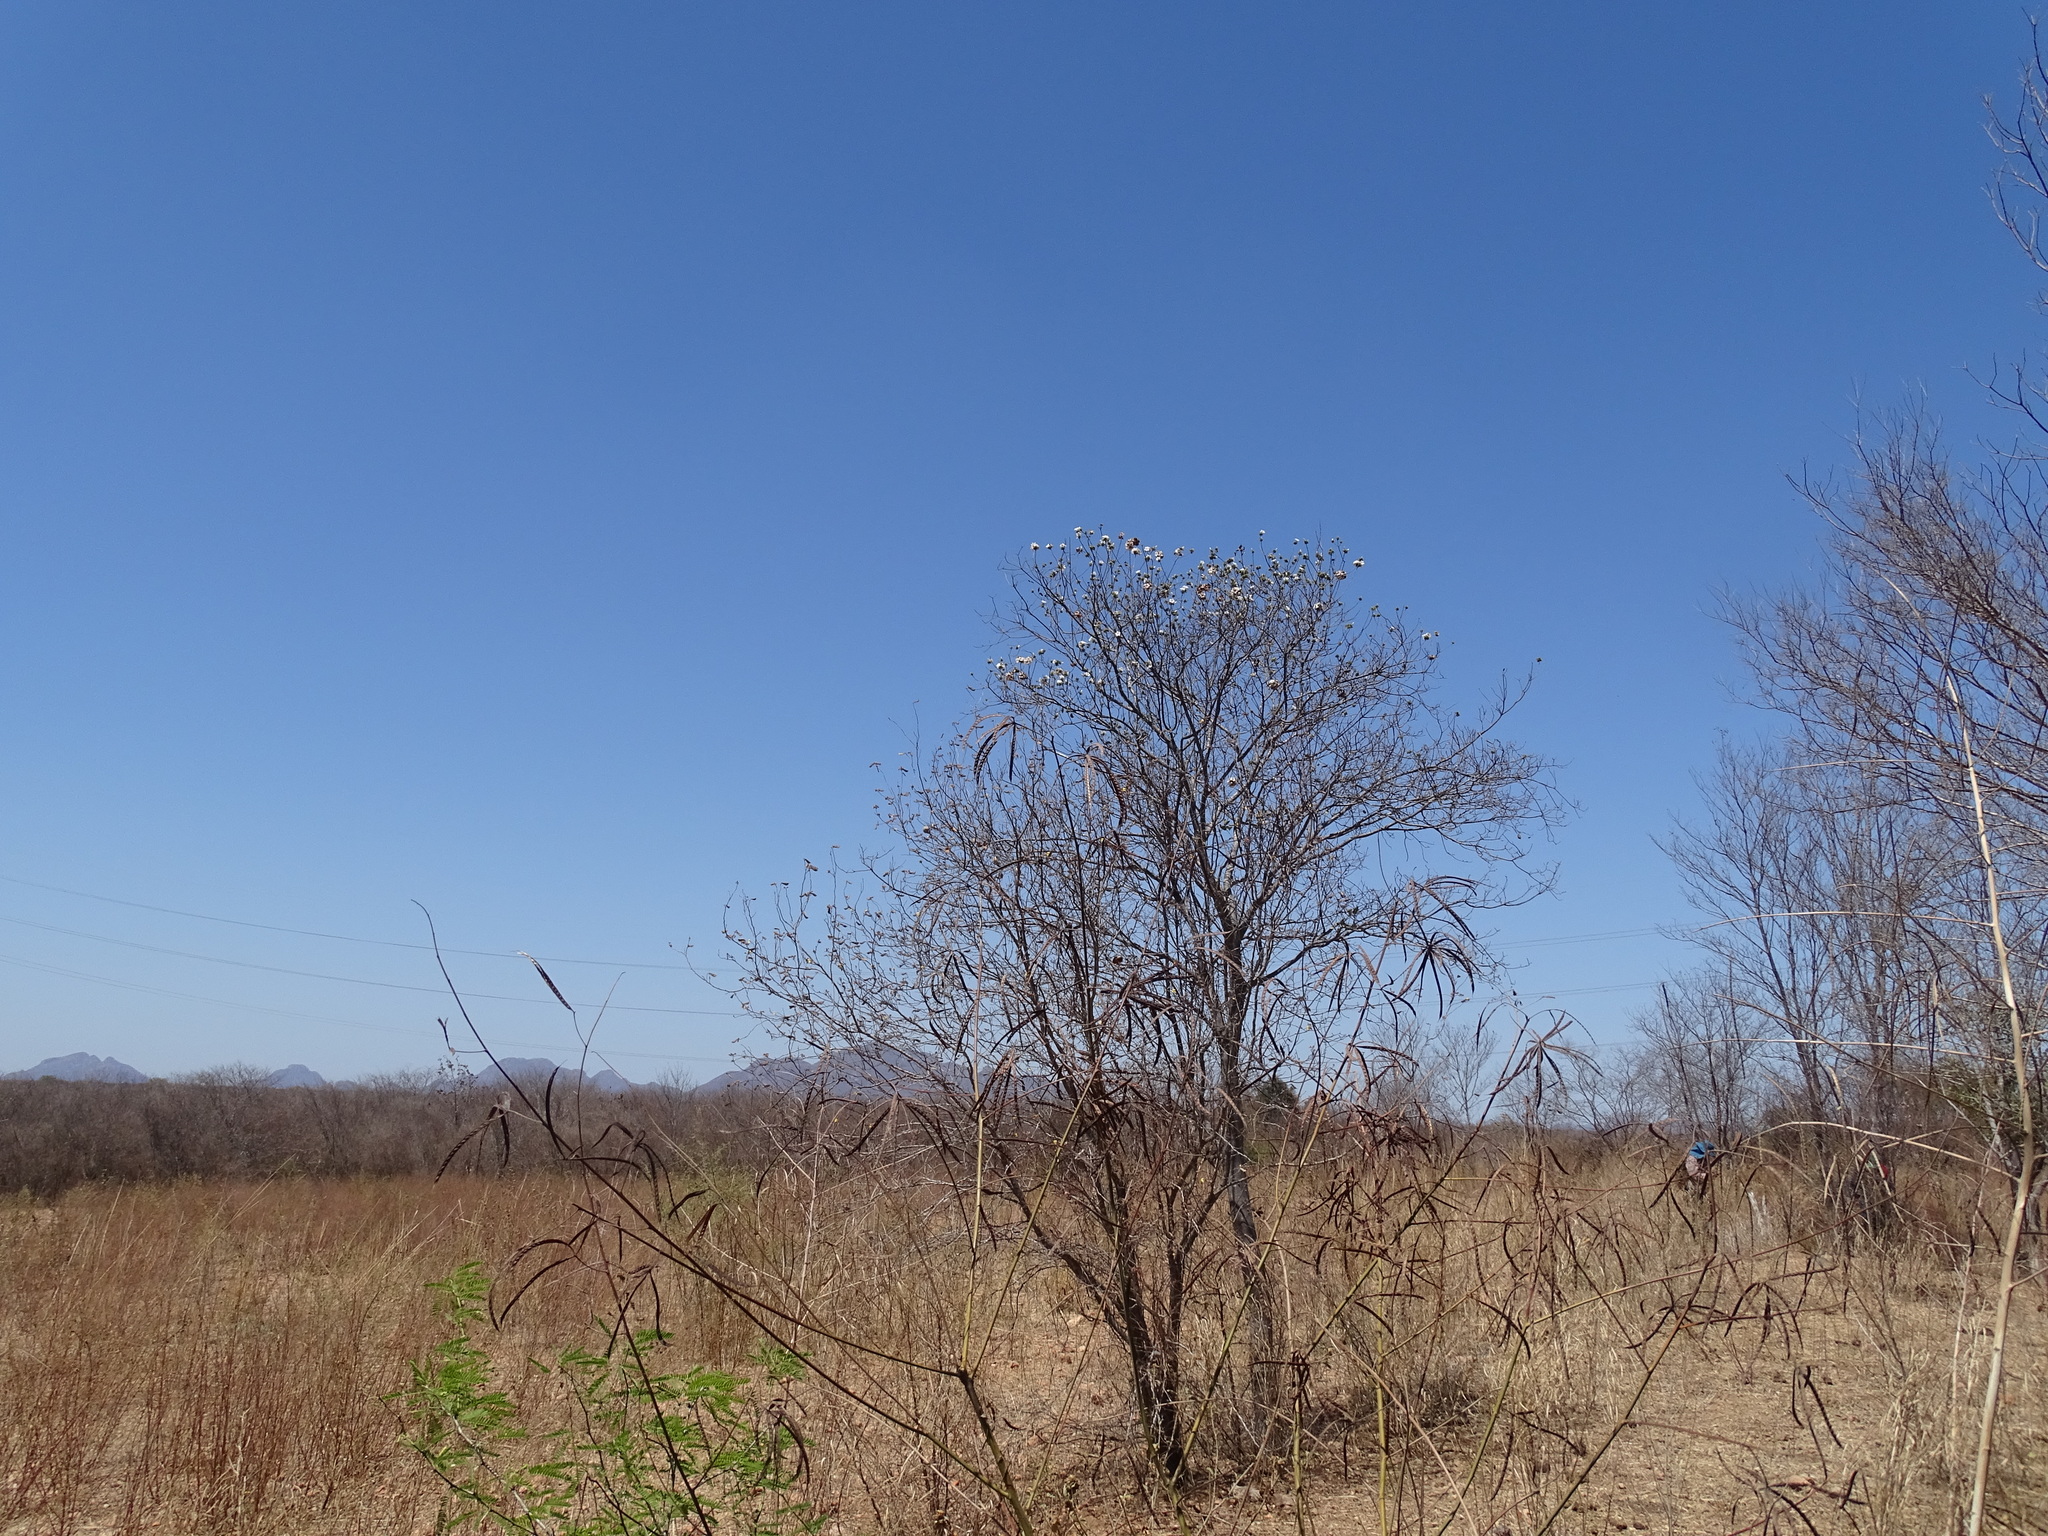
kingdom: Plantae
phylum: Tracheophyta
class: Magnoliopsida
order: Boraginales
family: Cordiaceae
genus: Cordia
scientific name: Cordia sonorae
